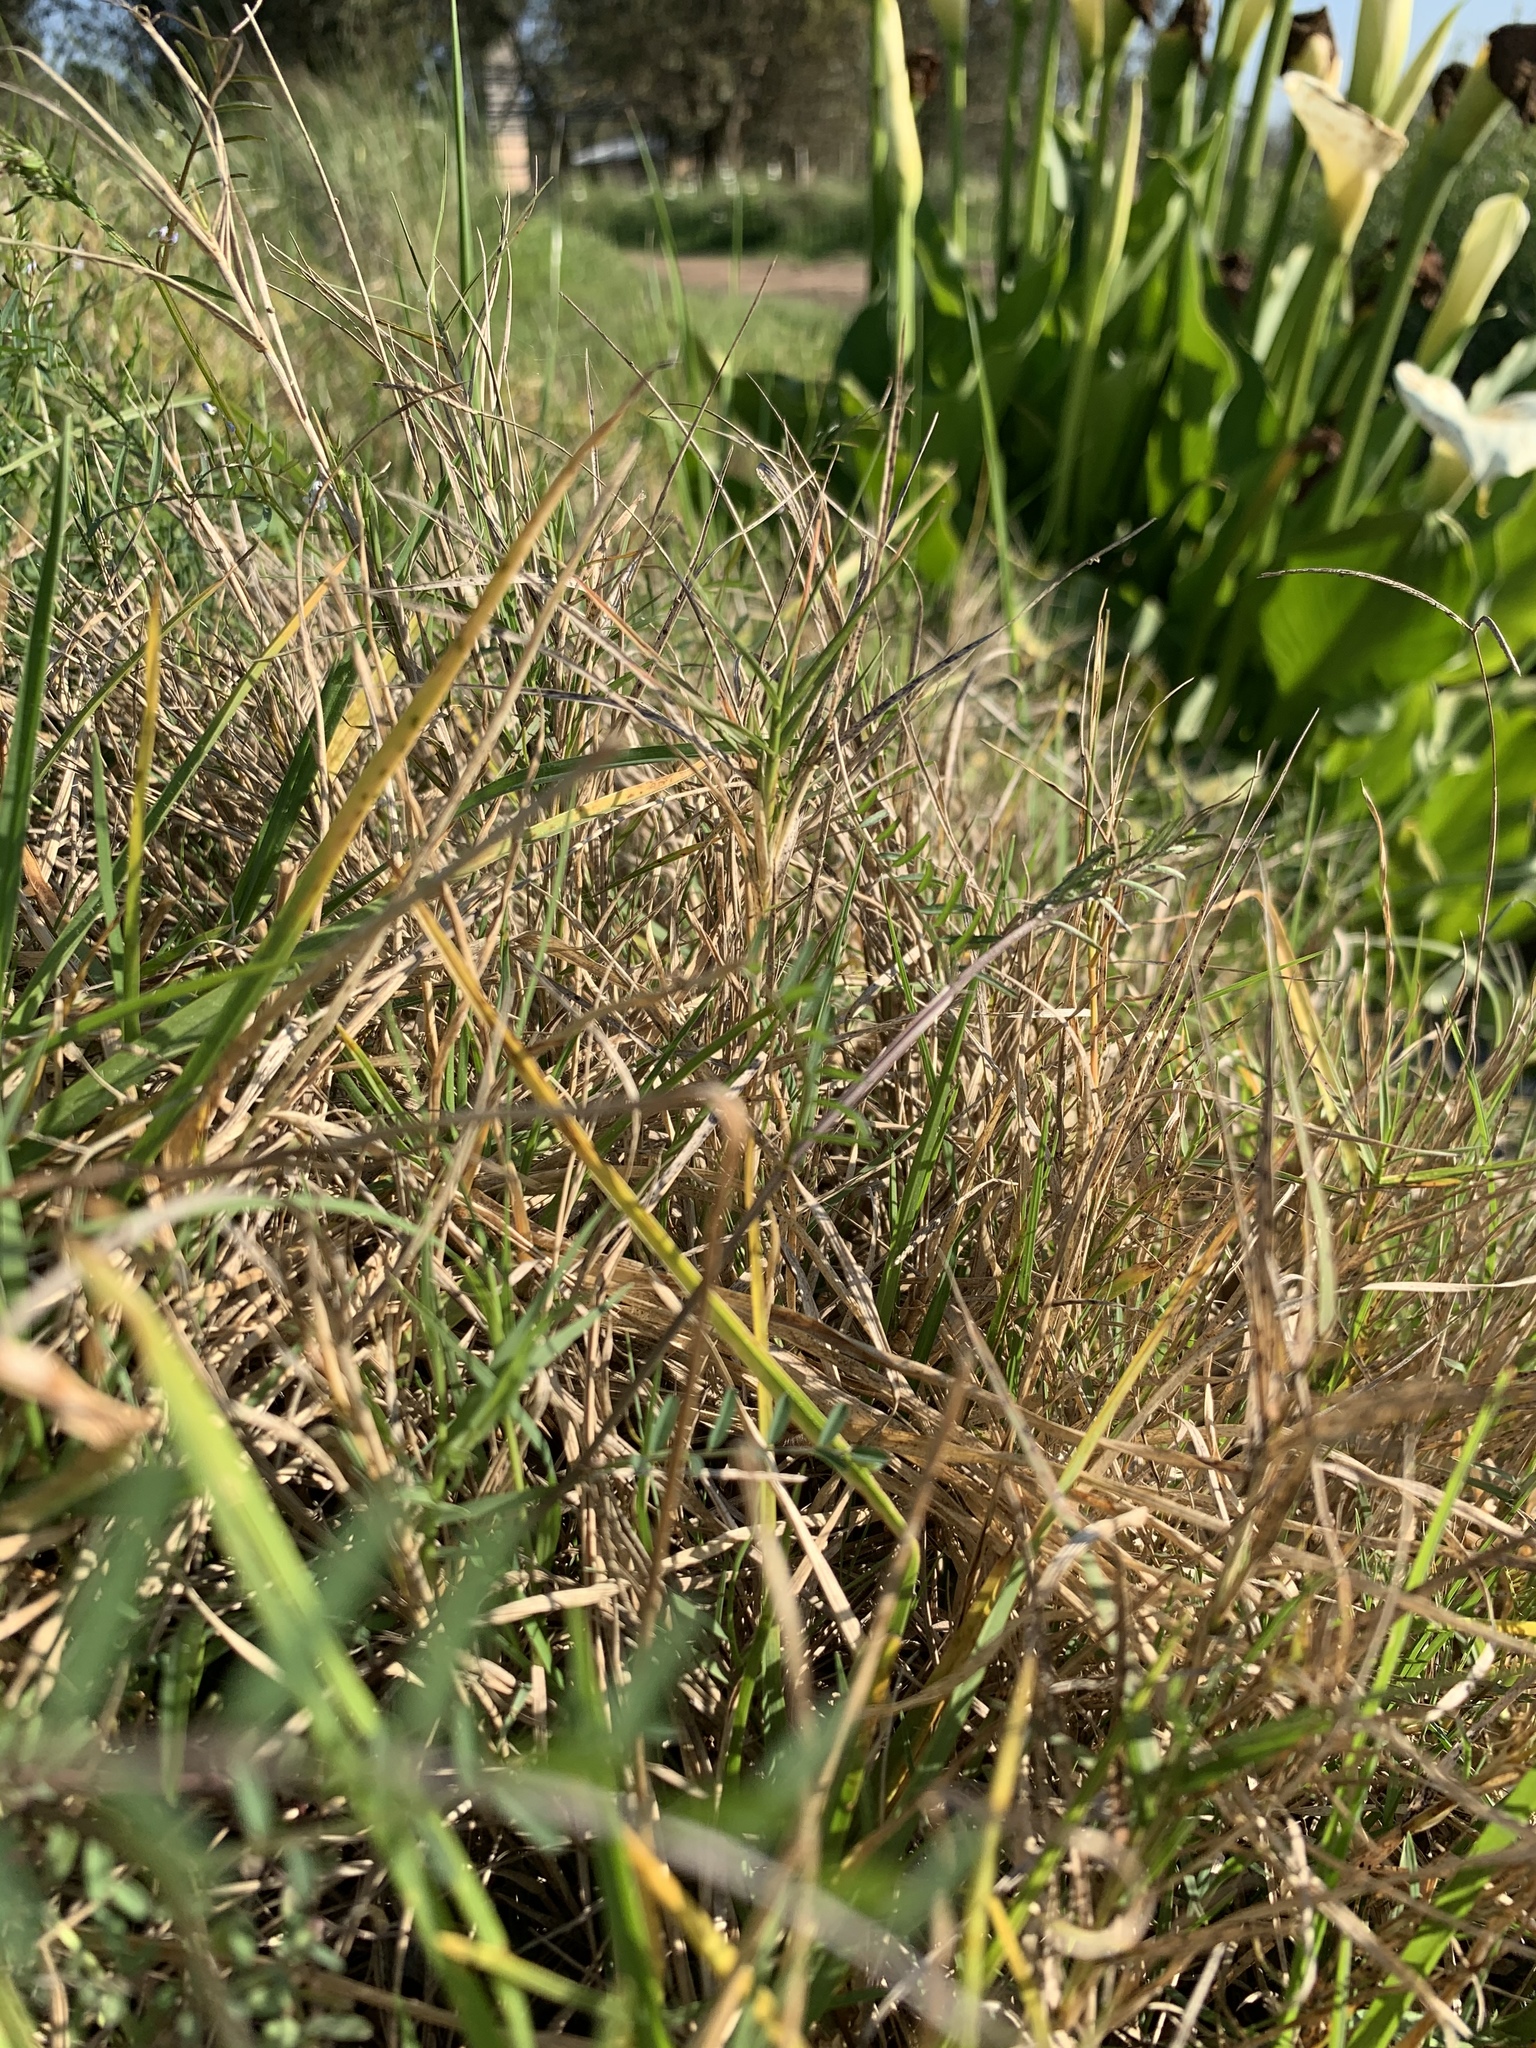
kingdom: Plantae
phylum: Tracheophyta
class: Liliopsida
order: Poales
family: Poaceae
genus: Cynodon
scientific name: Cynodon dactylon
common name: Bermuda grass
